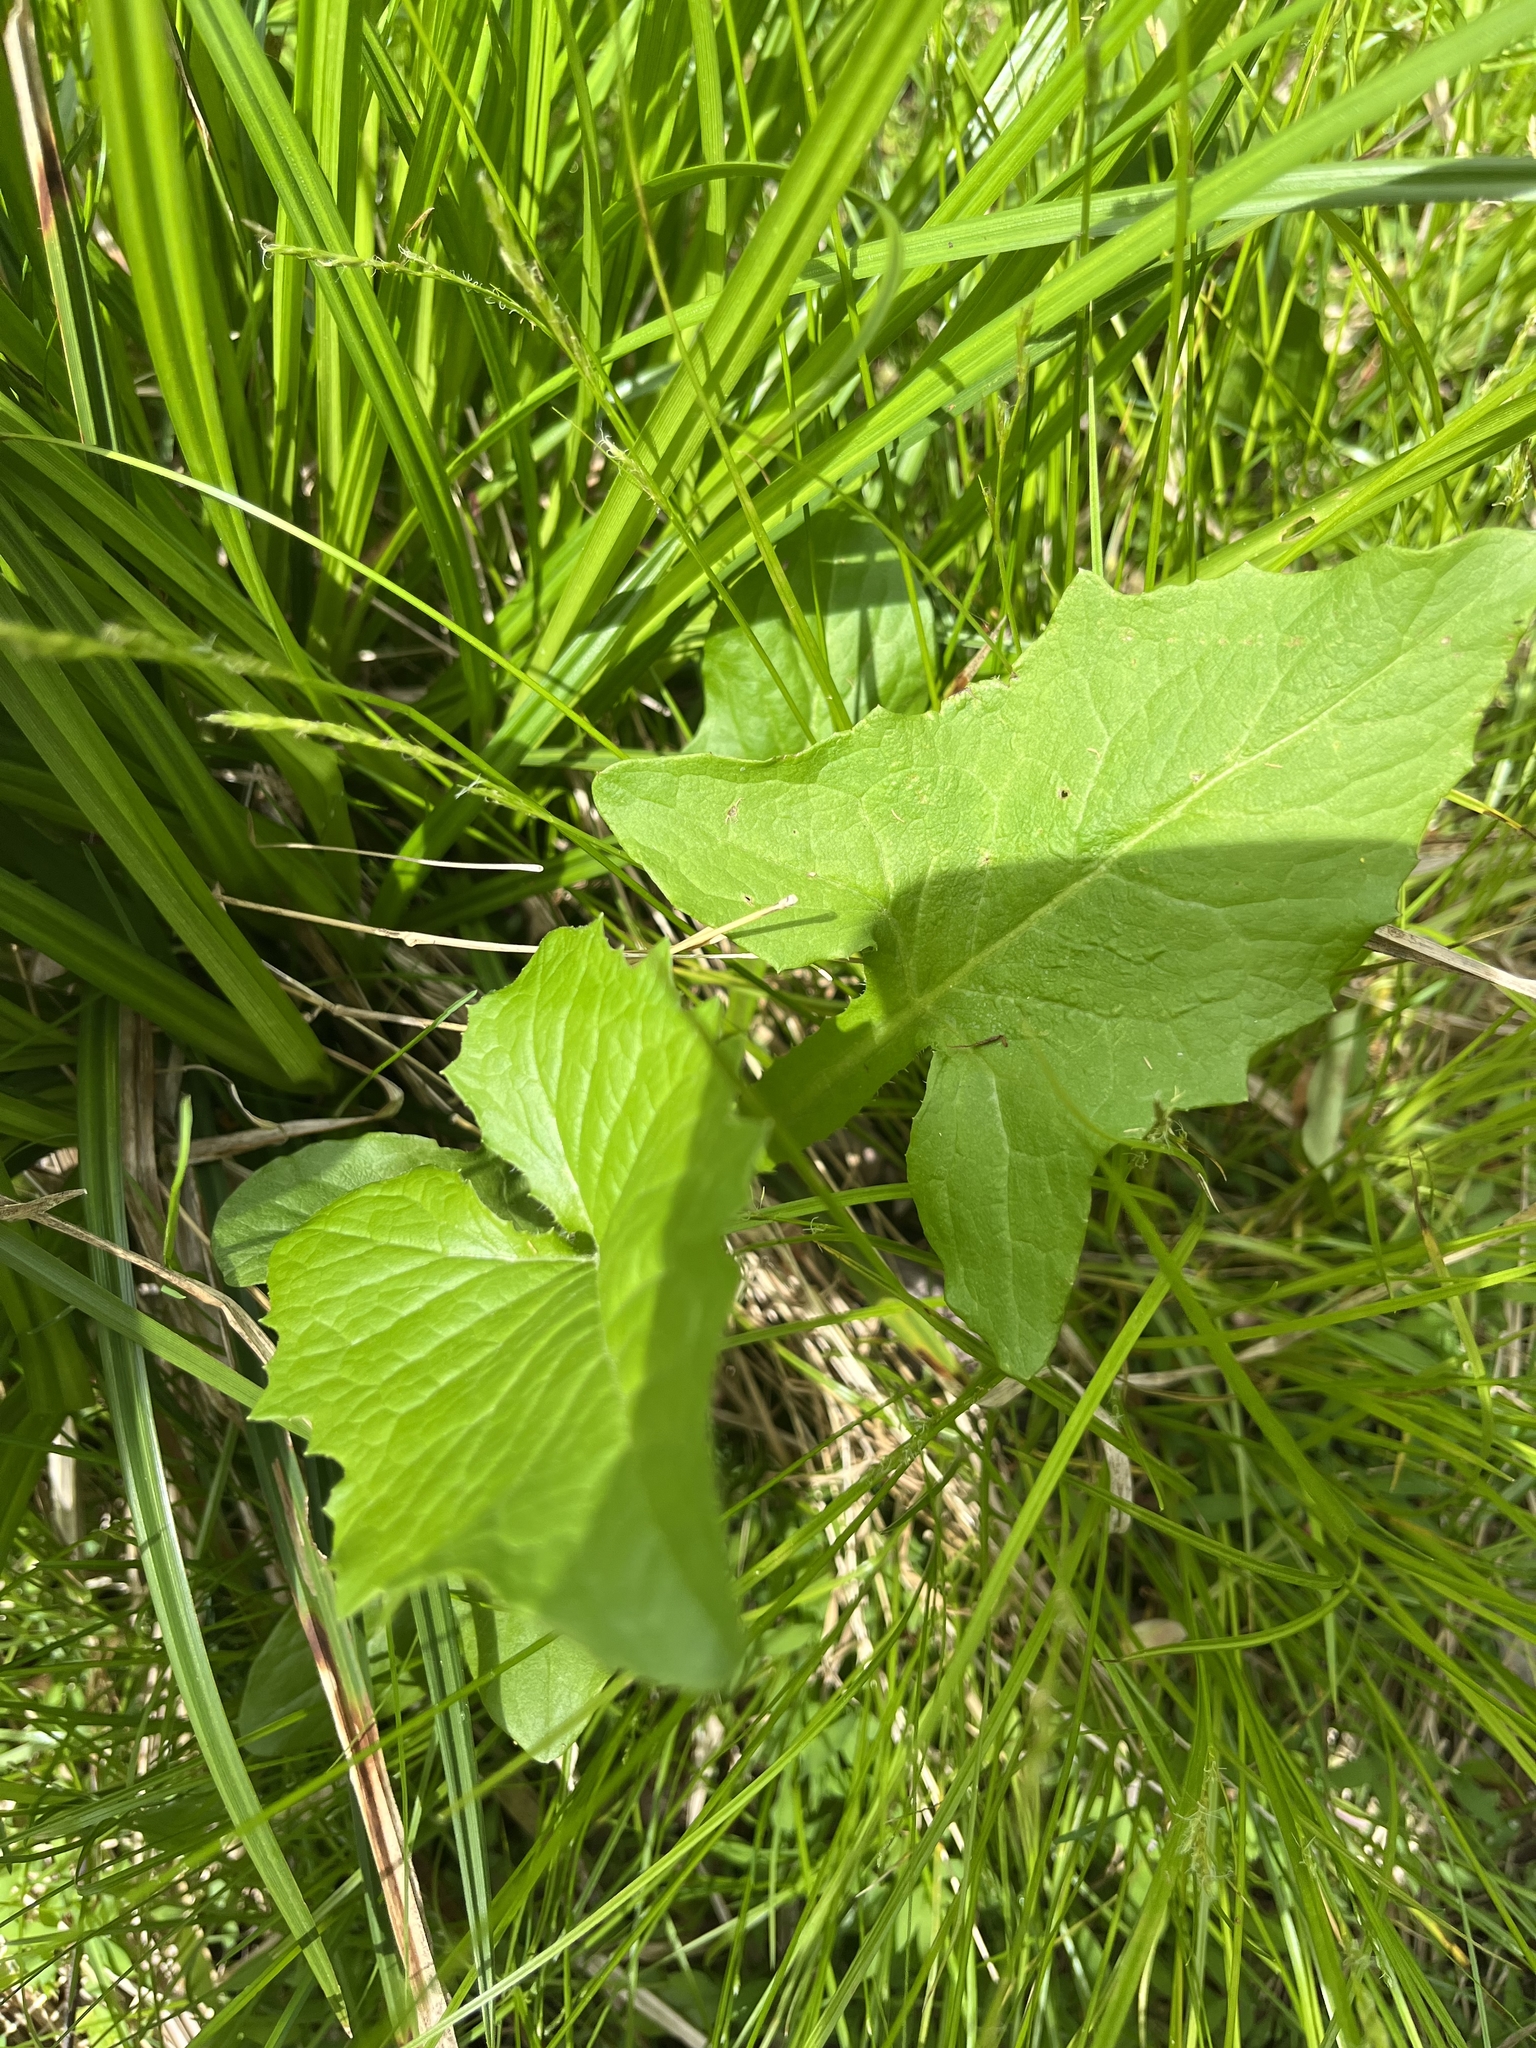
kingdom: Plantae
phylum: Tracheophyta
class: Magnoliopsida
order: Asterales
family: Asteraceae
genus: Nabalus
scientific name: Nabalus crepidineus
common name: Nodding rattlesnakeroot
